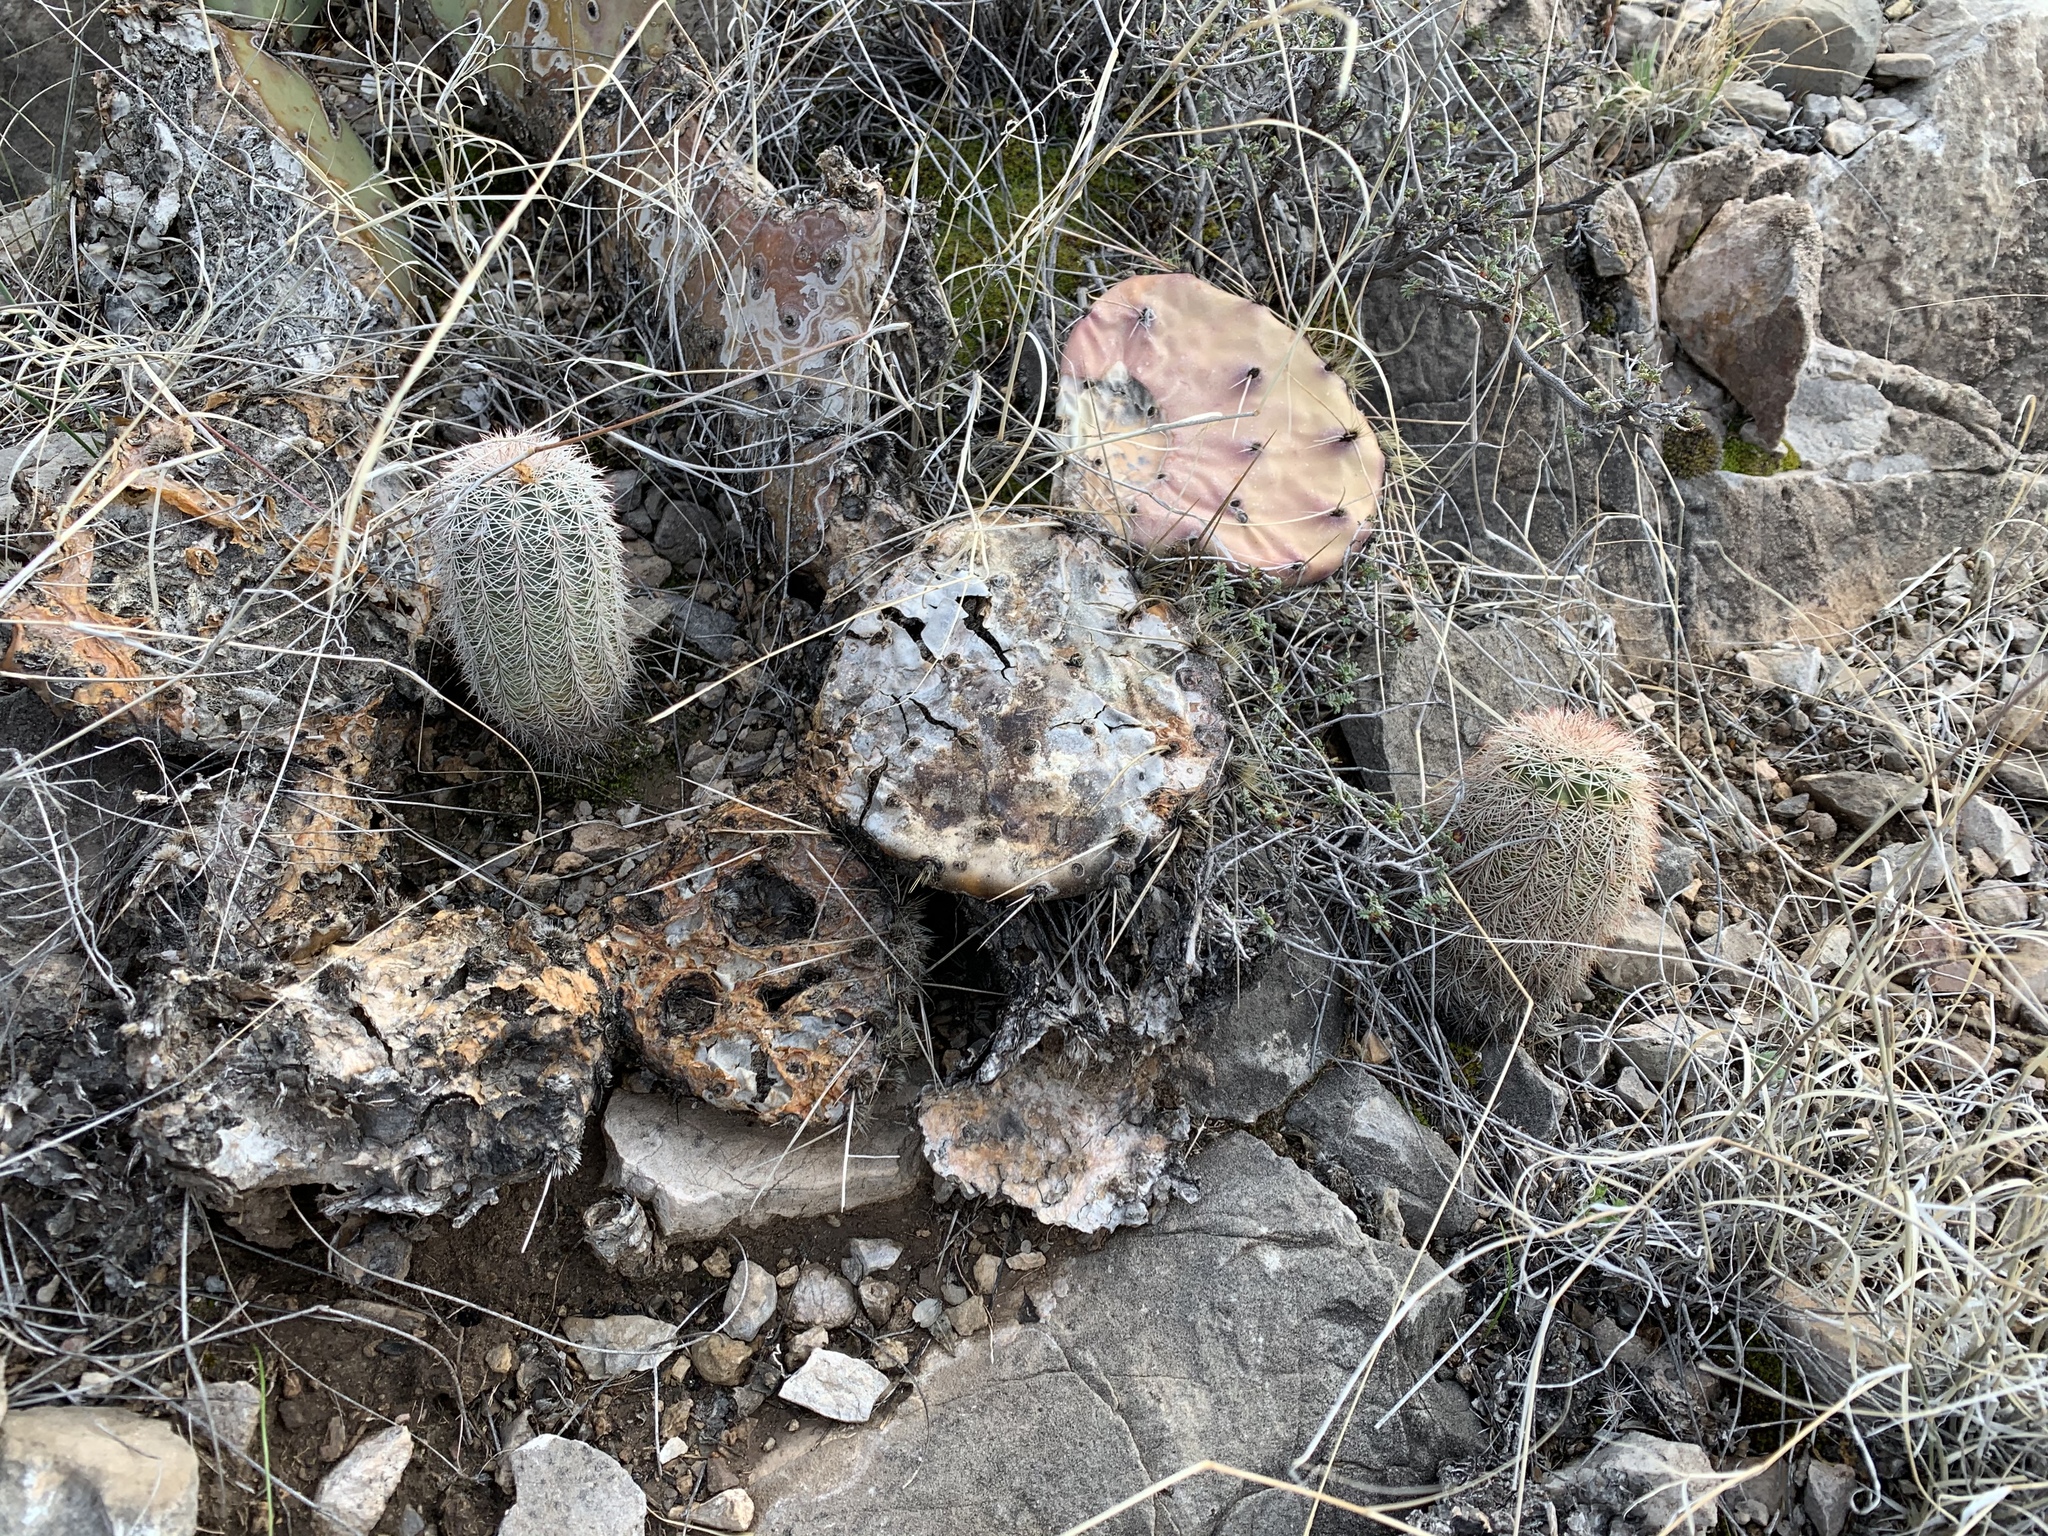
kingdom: Plantae
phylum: Tracheophyta
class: Magnoliopsida
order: Caryophyllales
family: Cactaceae
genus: Echinocereus
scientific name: Echinocereus dasyacanthus
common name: Spiny hedgehog cactus
